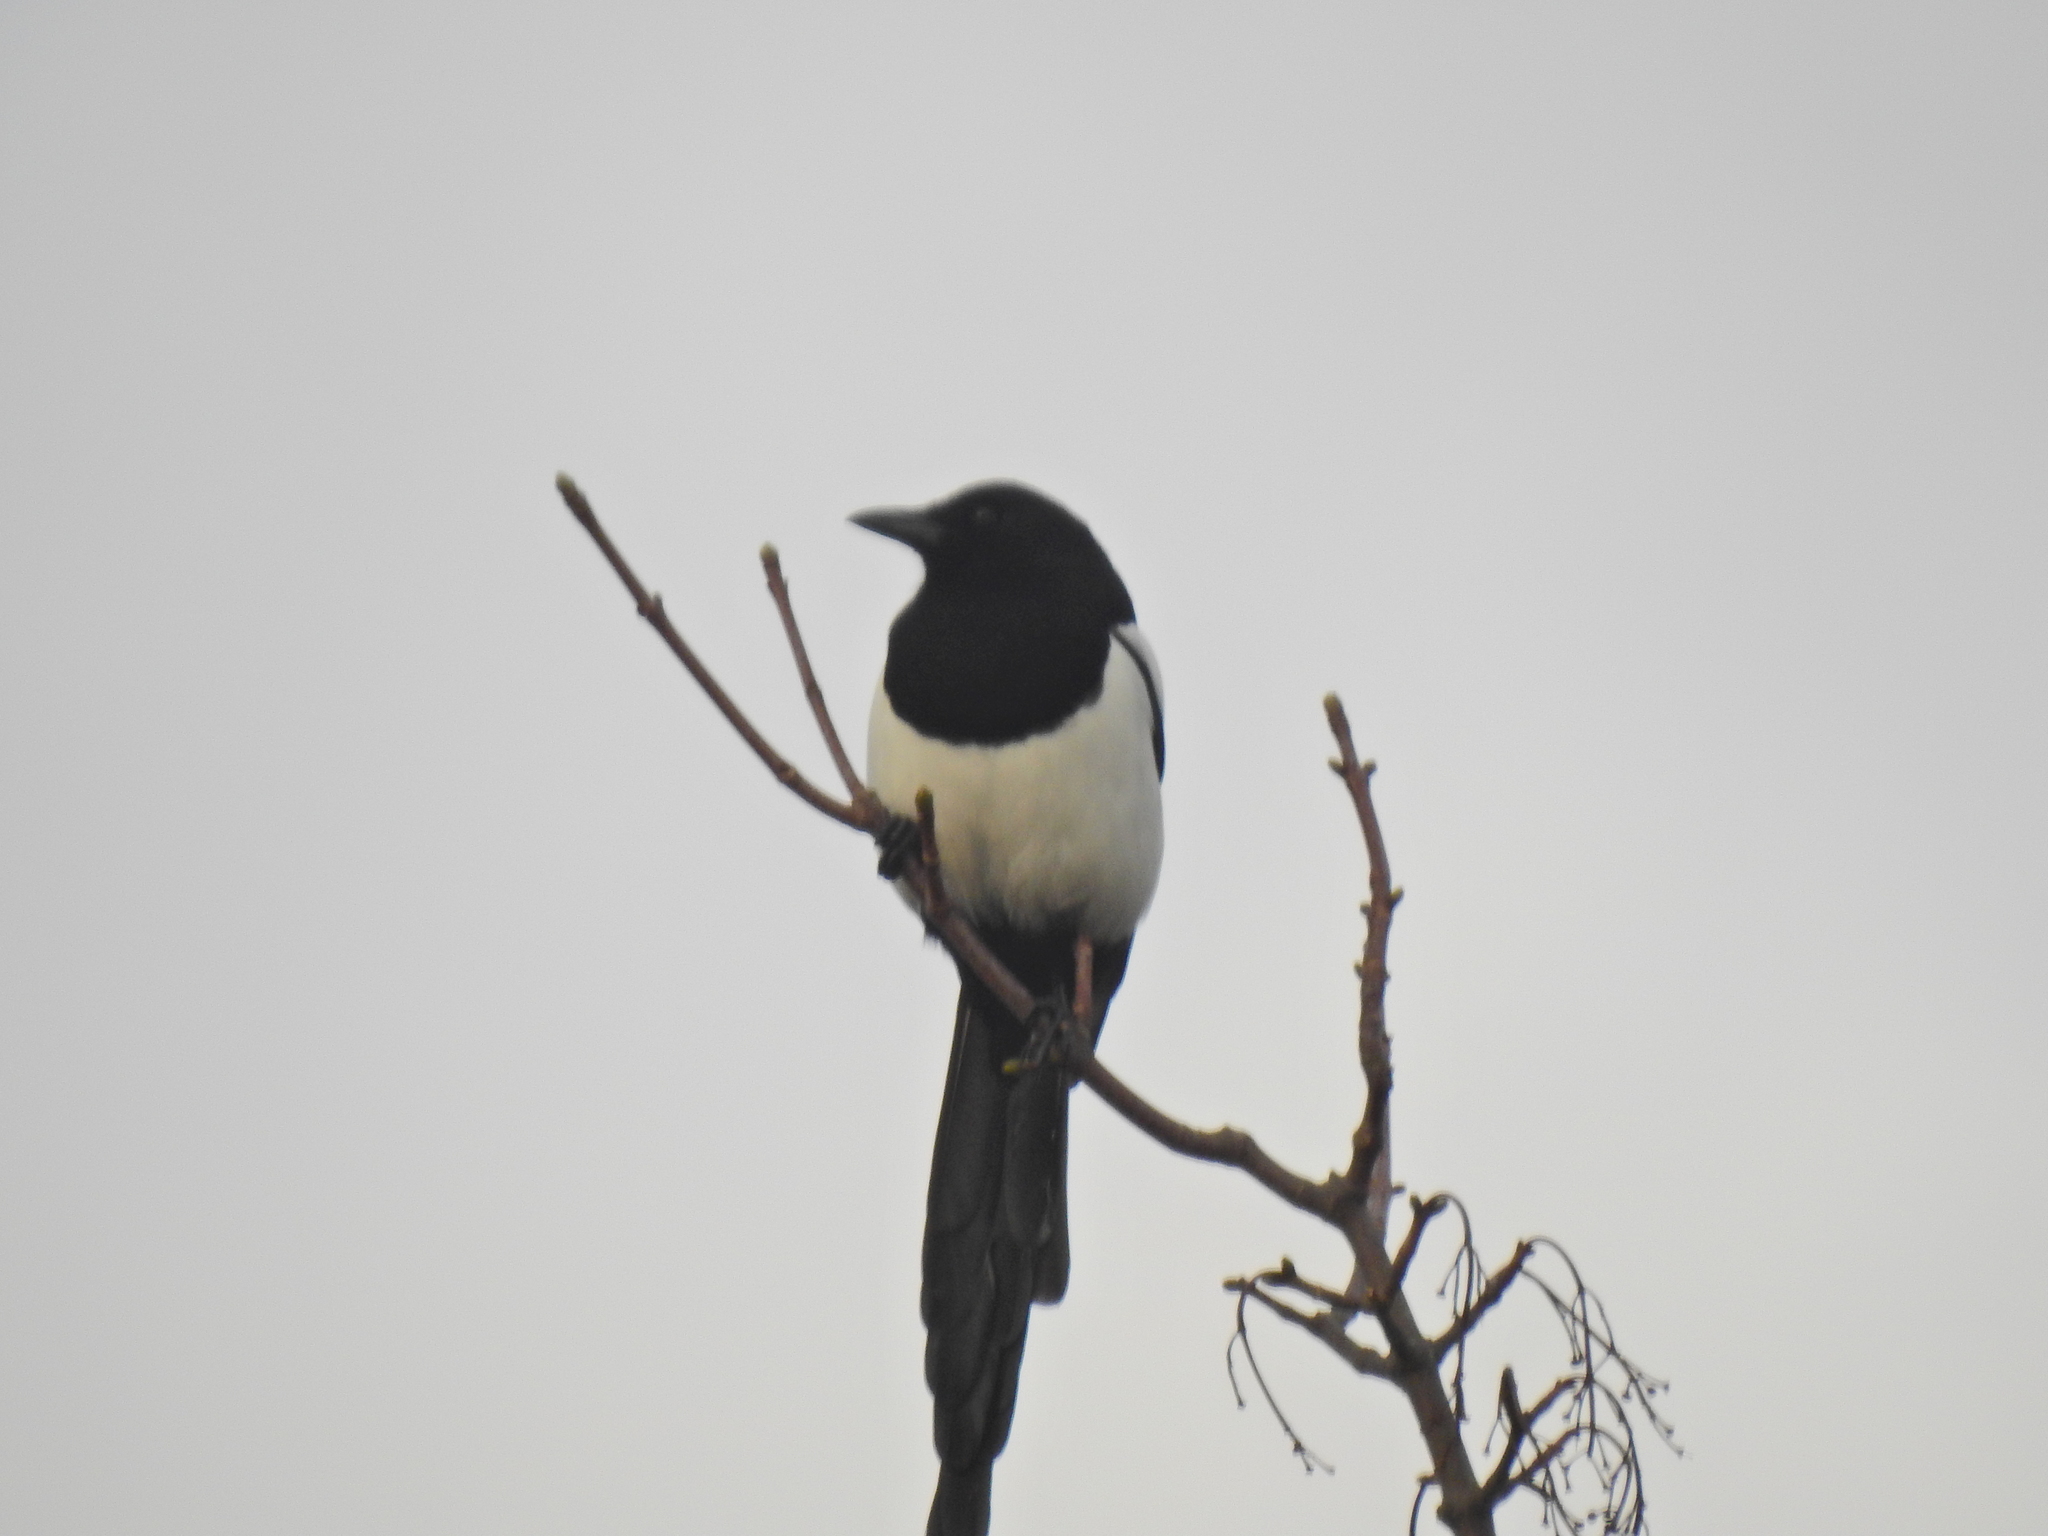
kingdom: Animalia
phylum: Chordata
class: Aves
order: Passeriformes
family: Corvidae
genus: Pica
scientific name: Pica pica
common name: Eurasian magpie
